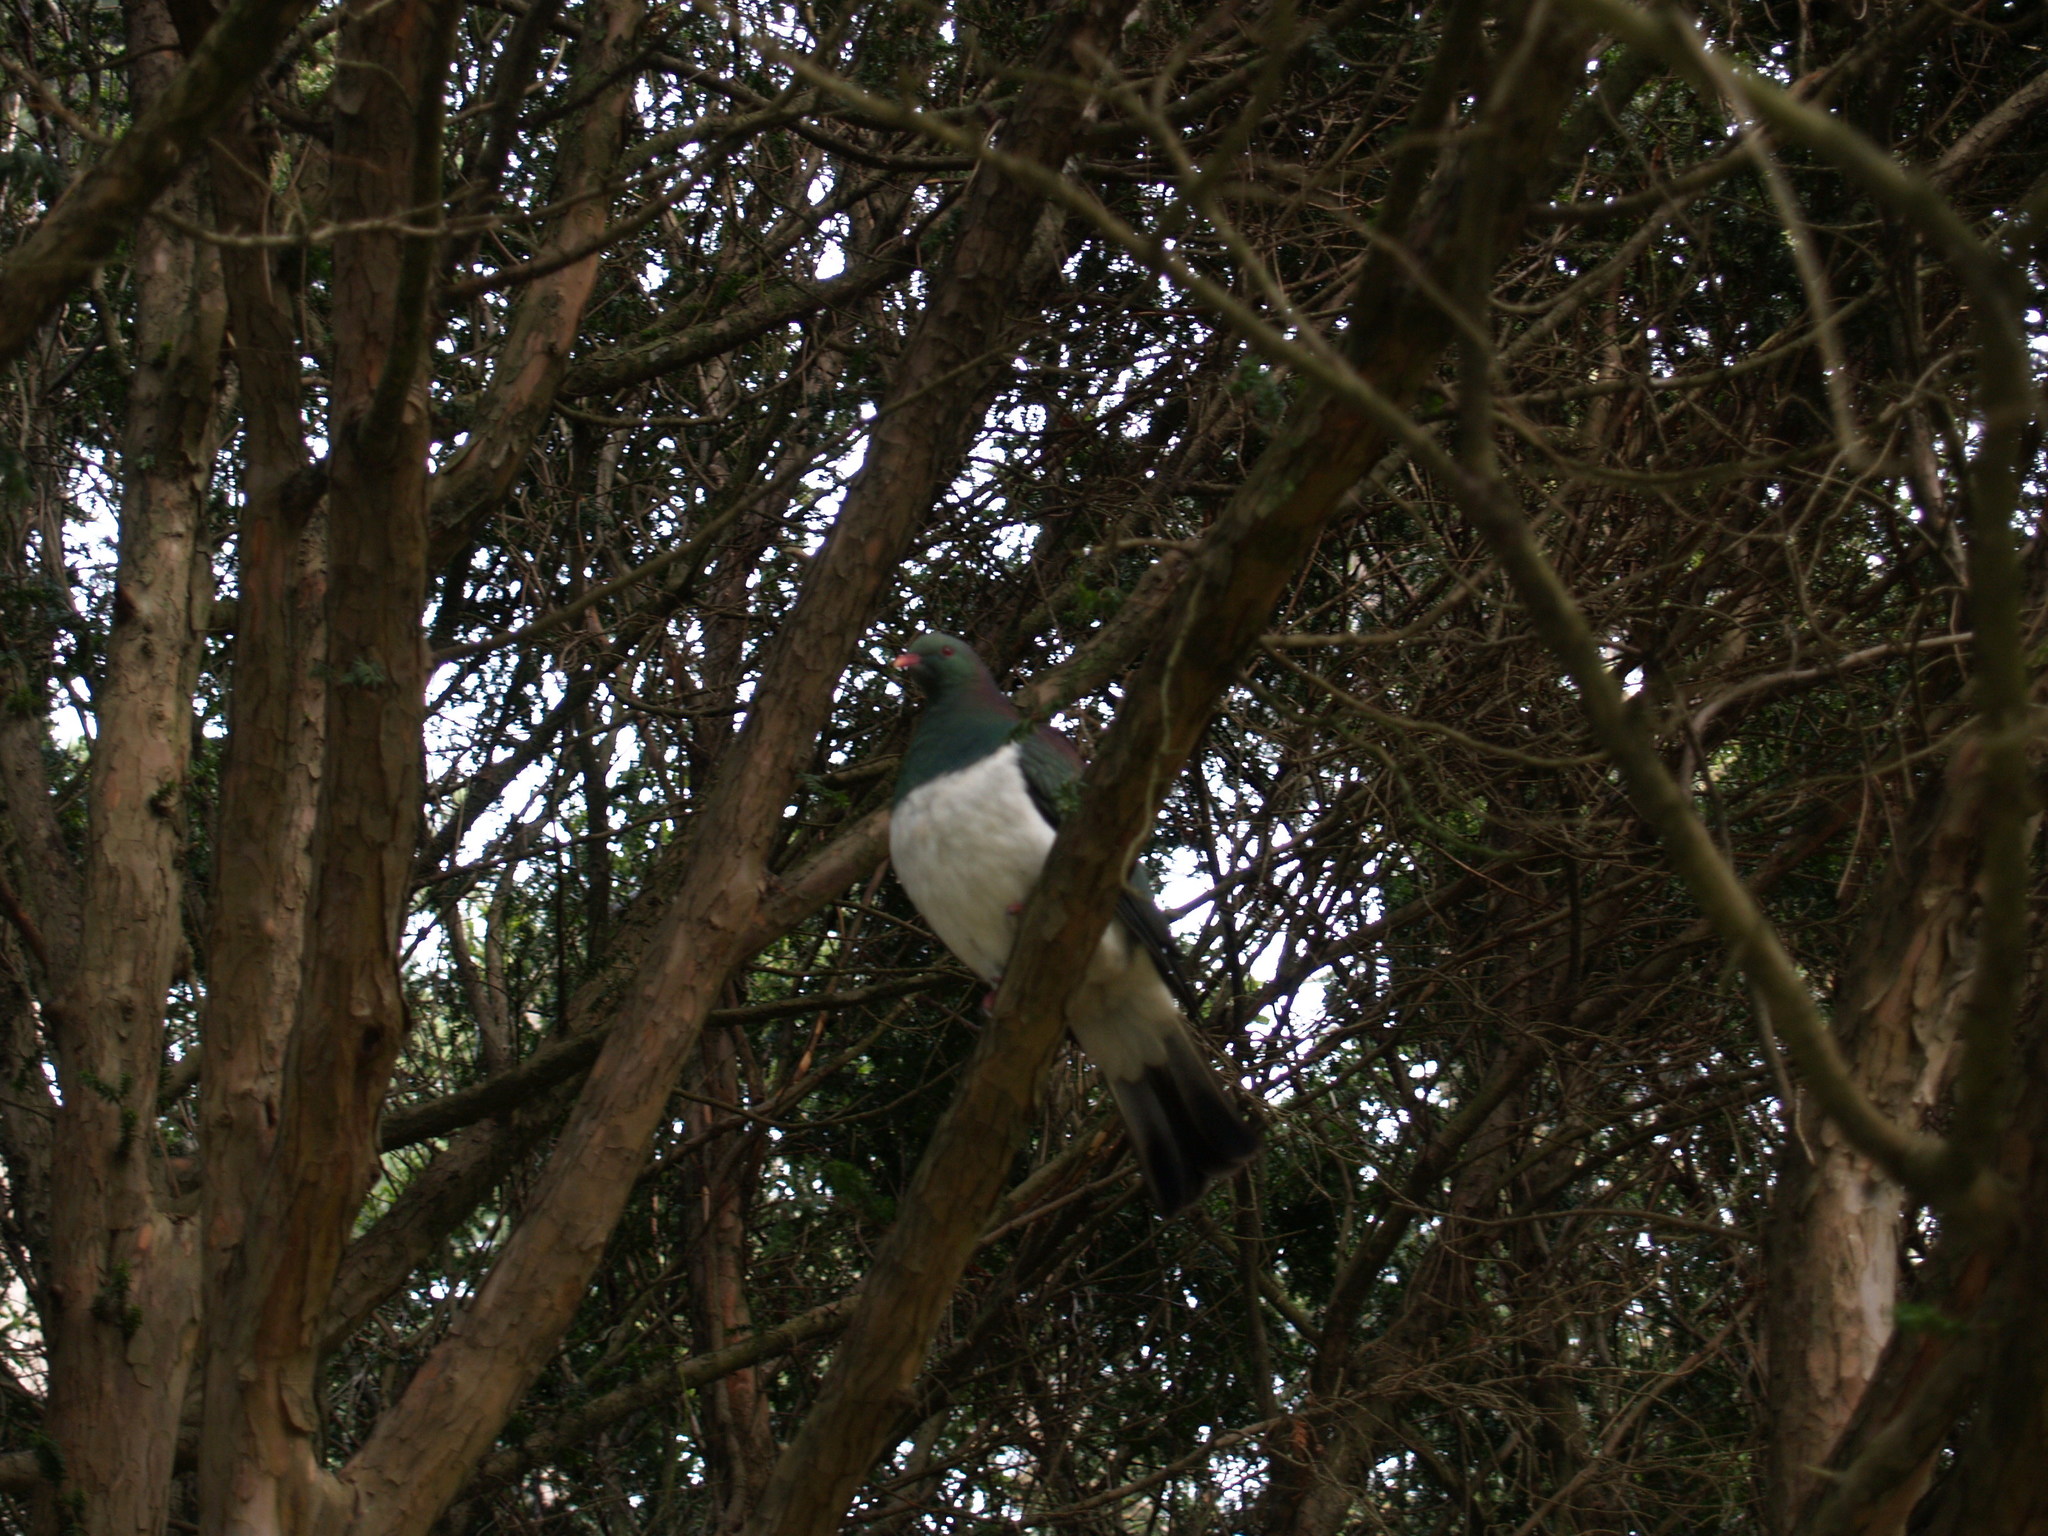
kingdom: Animalia
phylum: Chordata
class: Aves
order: Columbiformes
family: Columbidae
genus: Hemiphaga
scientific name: Hemiphaga novaeseelandiae
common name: New zealand pigeon
